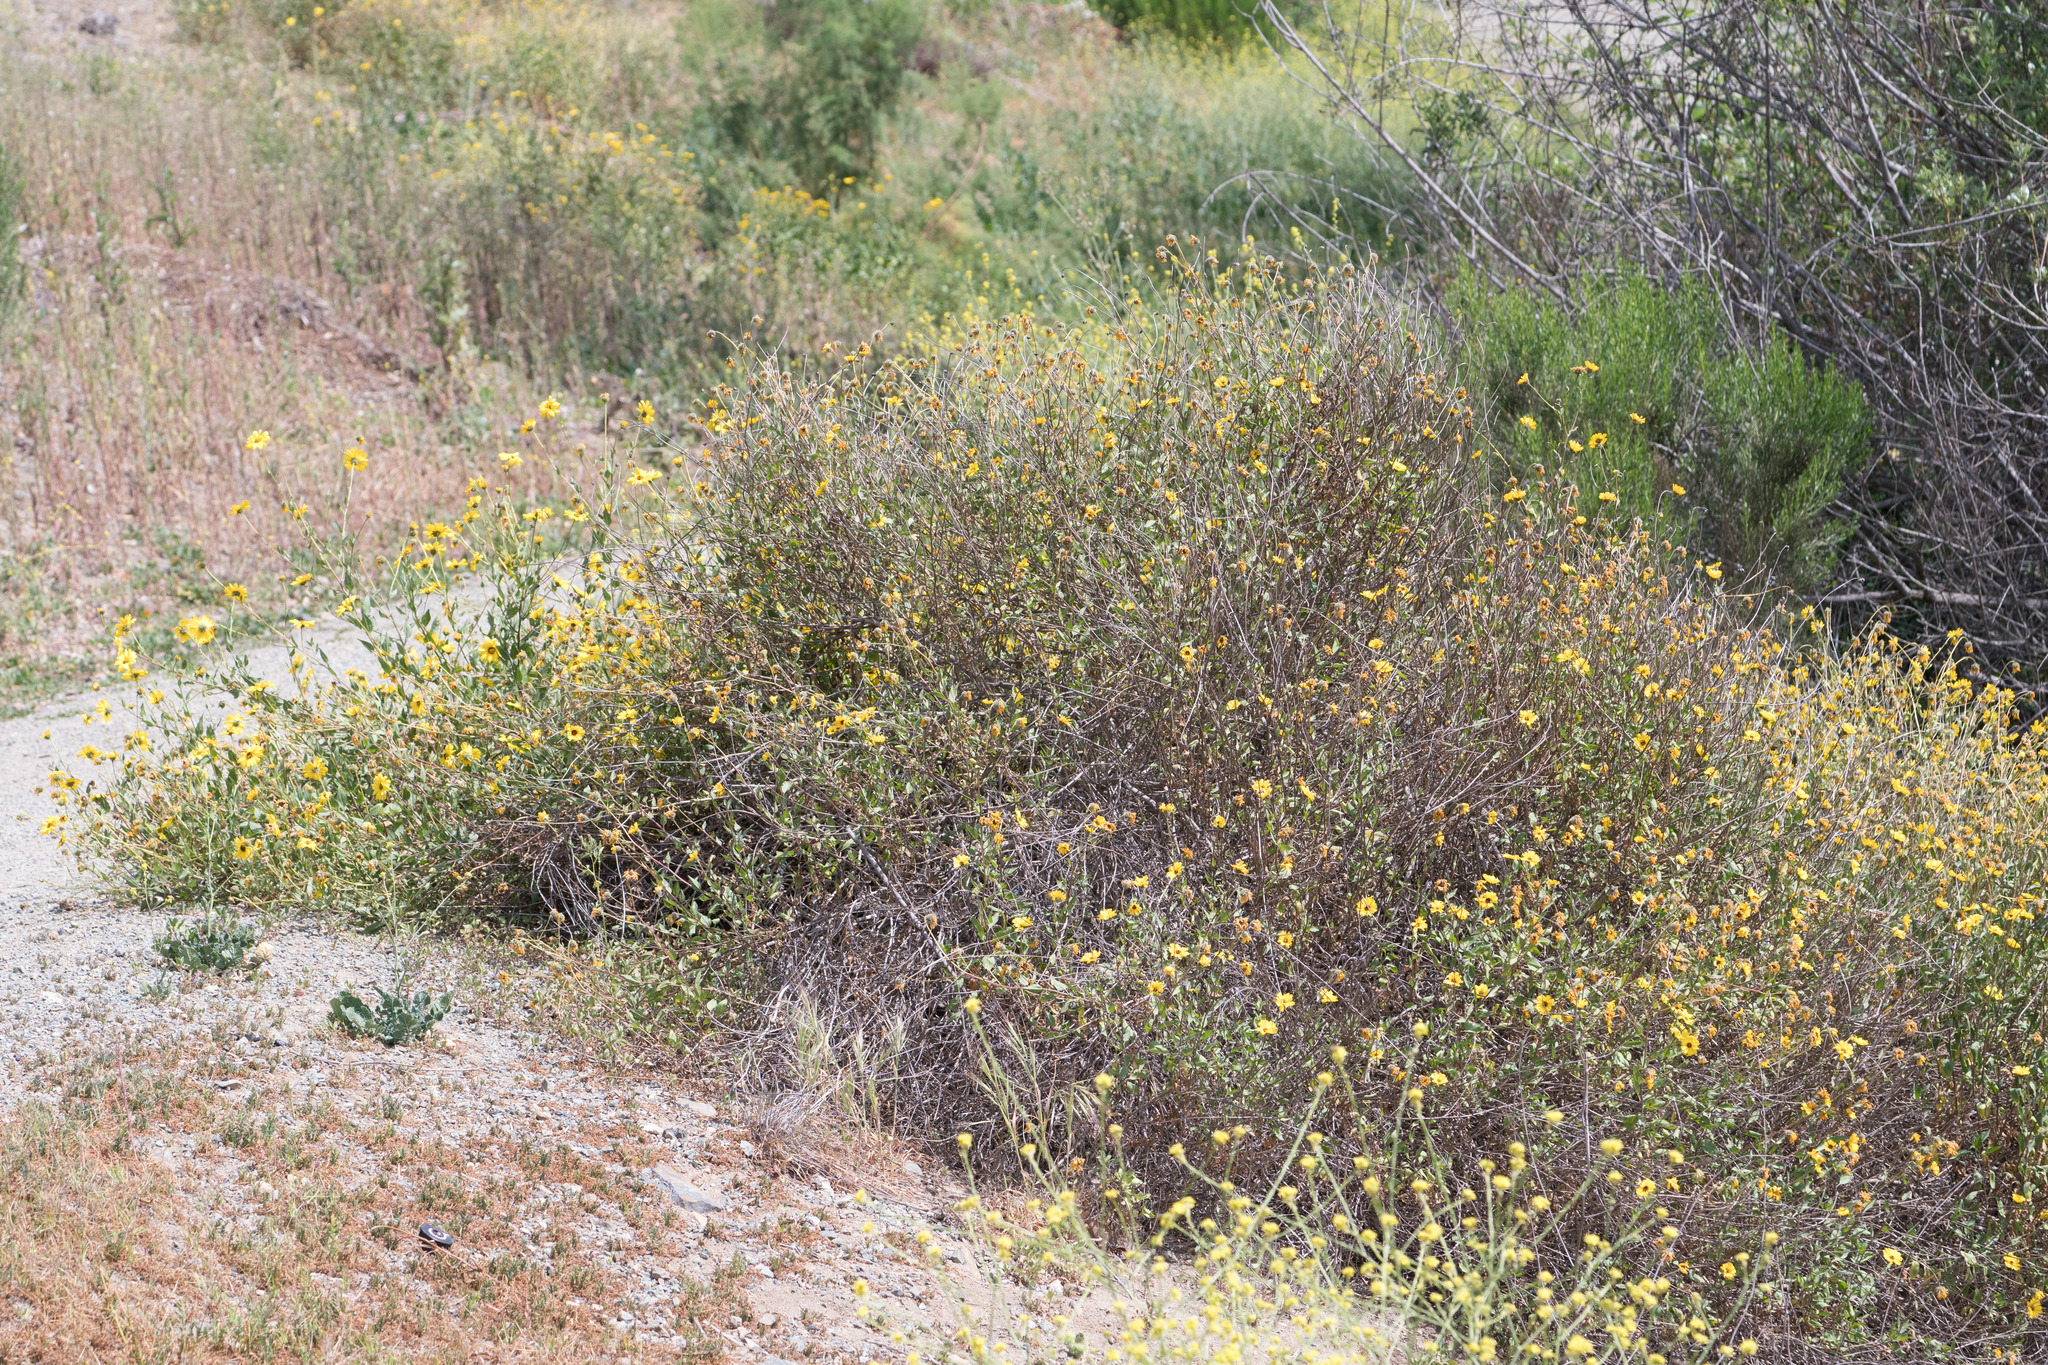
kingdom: Plantae
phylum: Tracheophyta
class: Magnoliopsida
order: Asterales
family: Asteraceae
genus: Encelia
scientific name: Encelia californica
